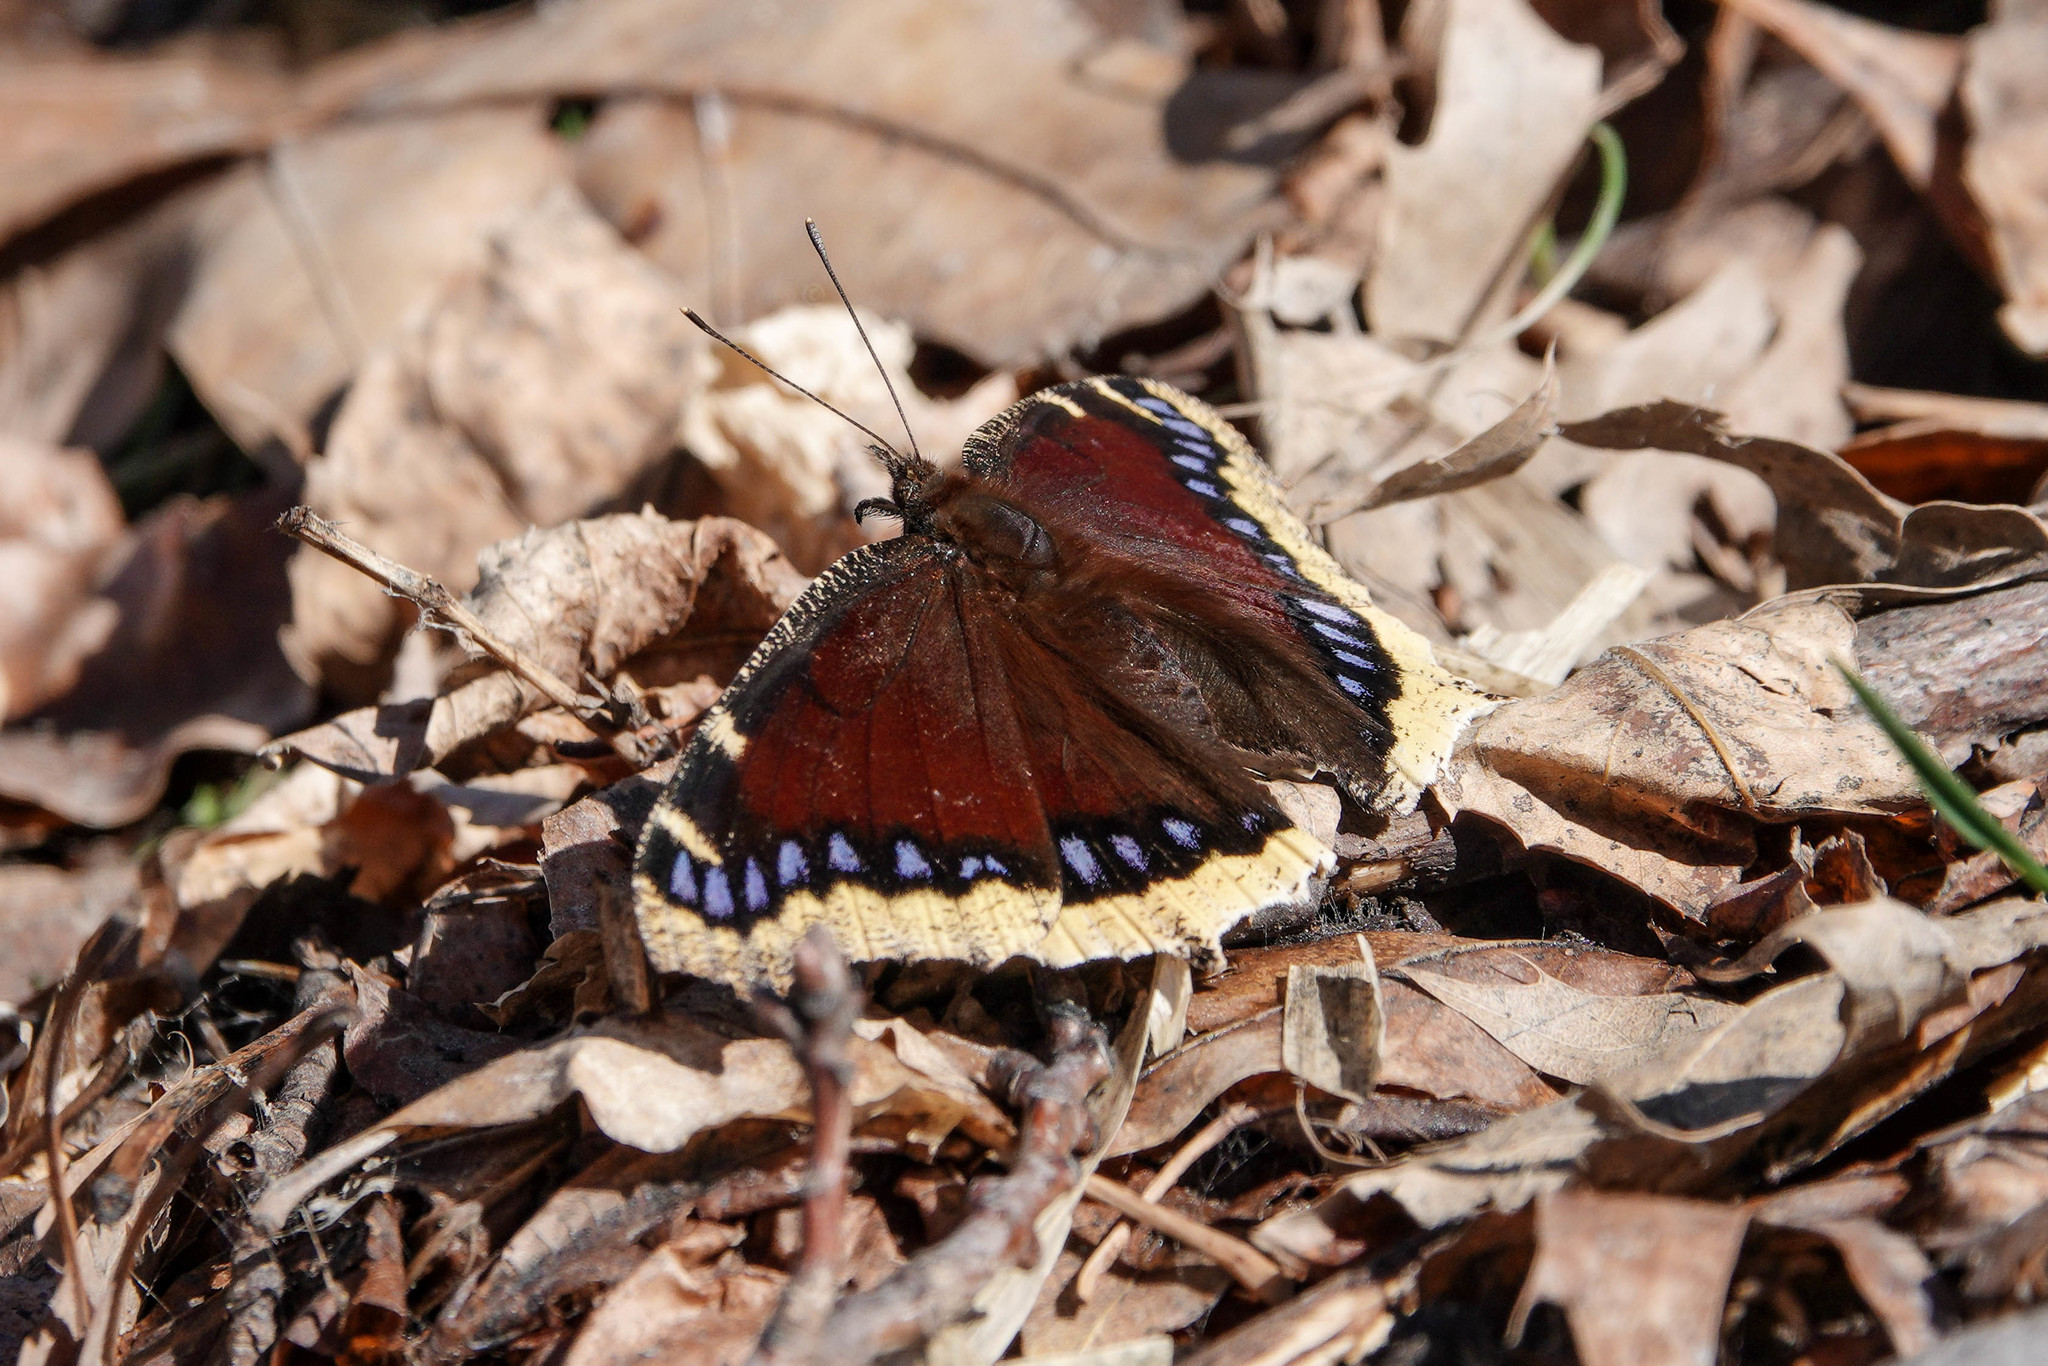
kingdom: Animalia
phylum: Arthropoda
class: Insecta
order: Lepidoptera
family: Nymphalidae
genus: Nymphalis
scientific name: Nymphalis antiopa
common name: Camberwell beauty
